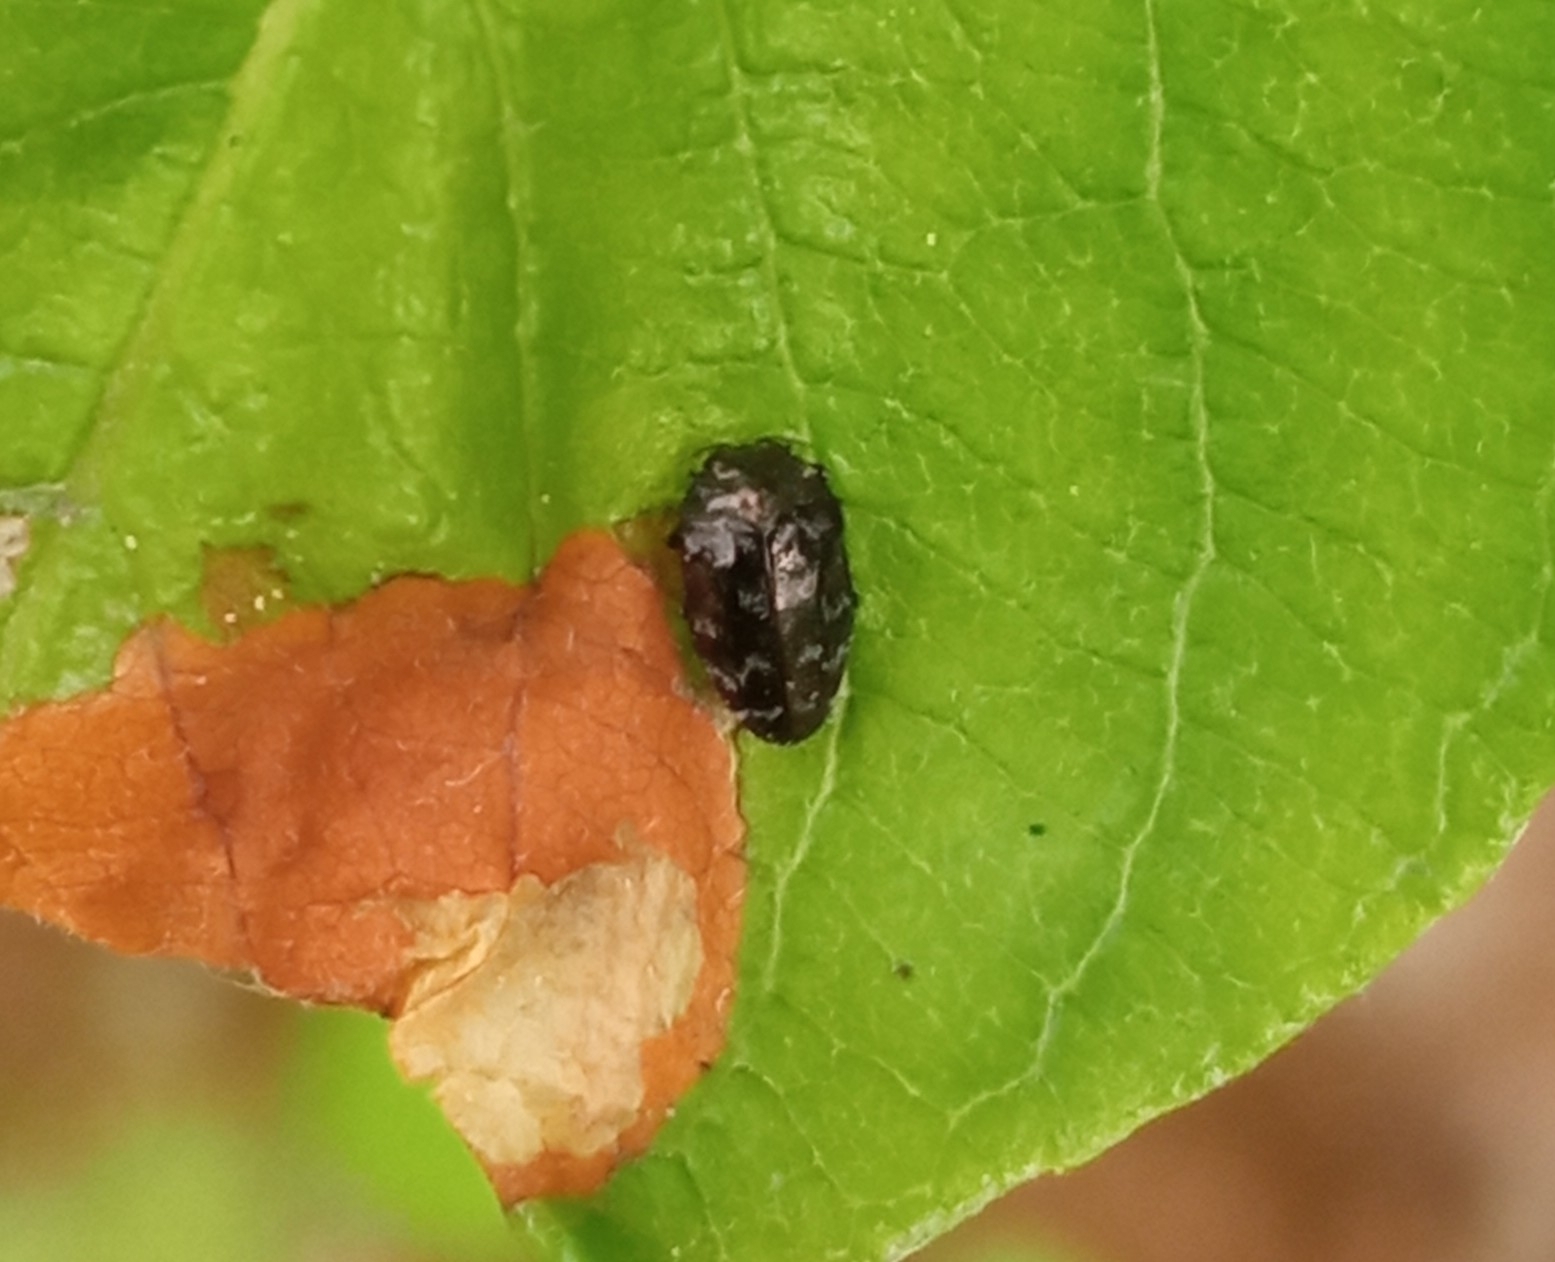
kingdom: Animalia
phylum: Arthropoda
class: Insecta
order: Coleoptera
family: Buprestidae
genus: Trachys
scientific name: Trachys minutus
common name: Metallic wood-boring beetle
